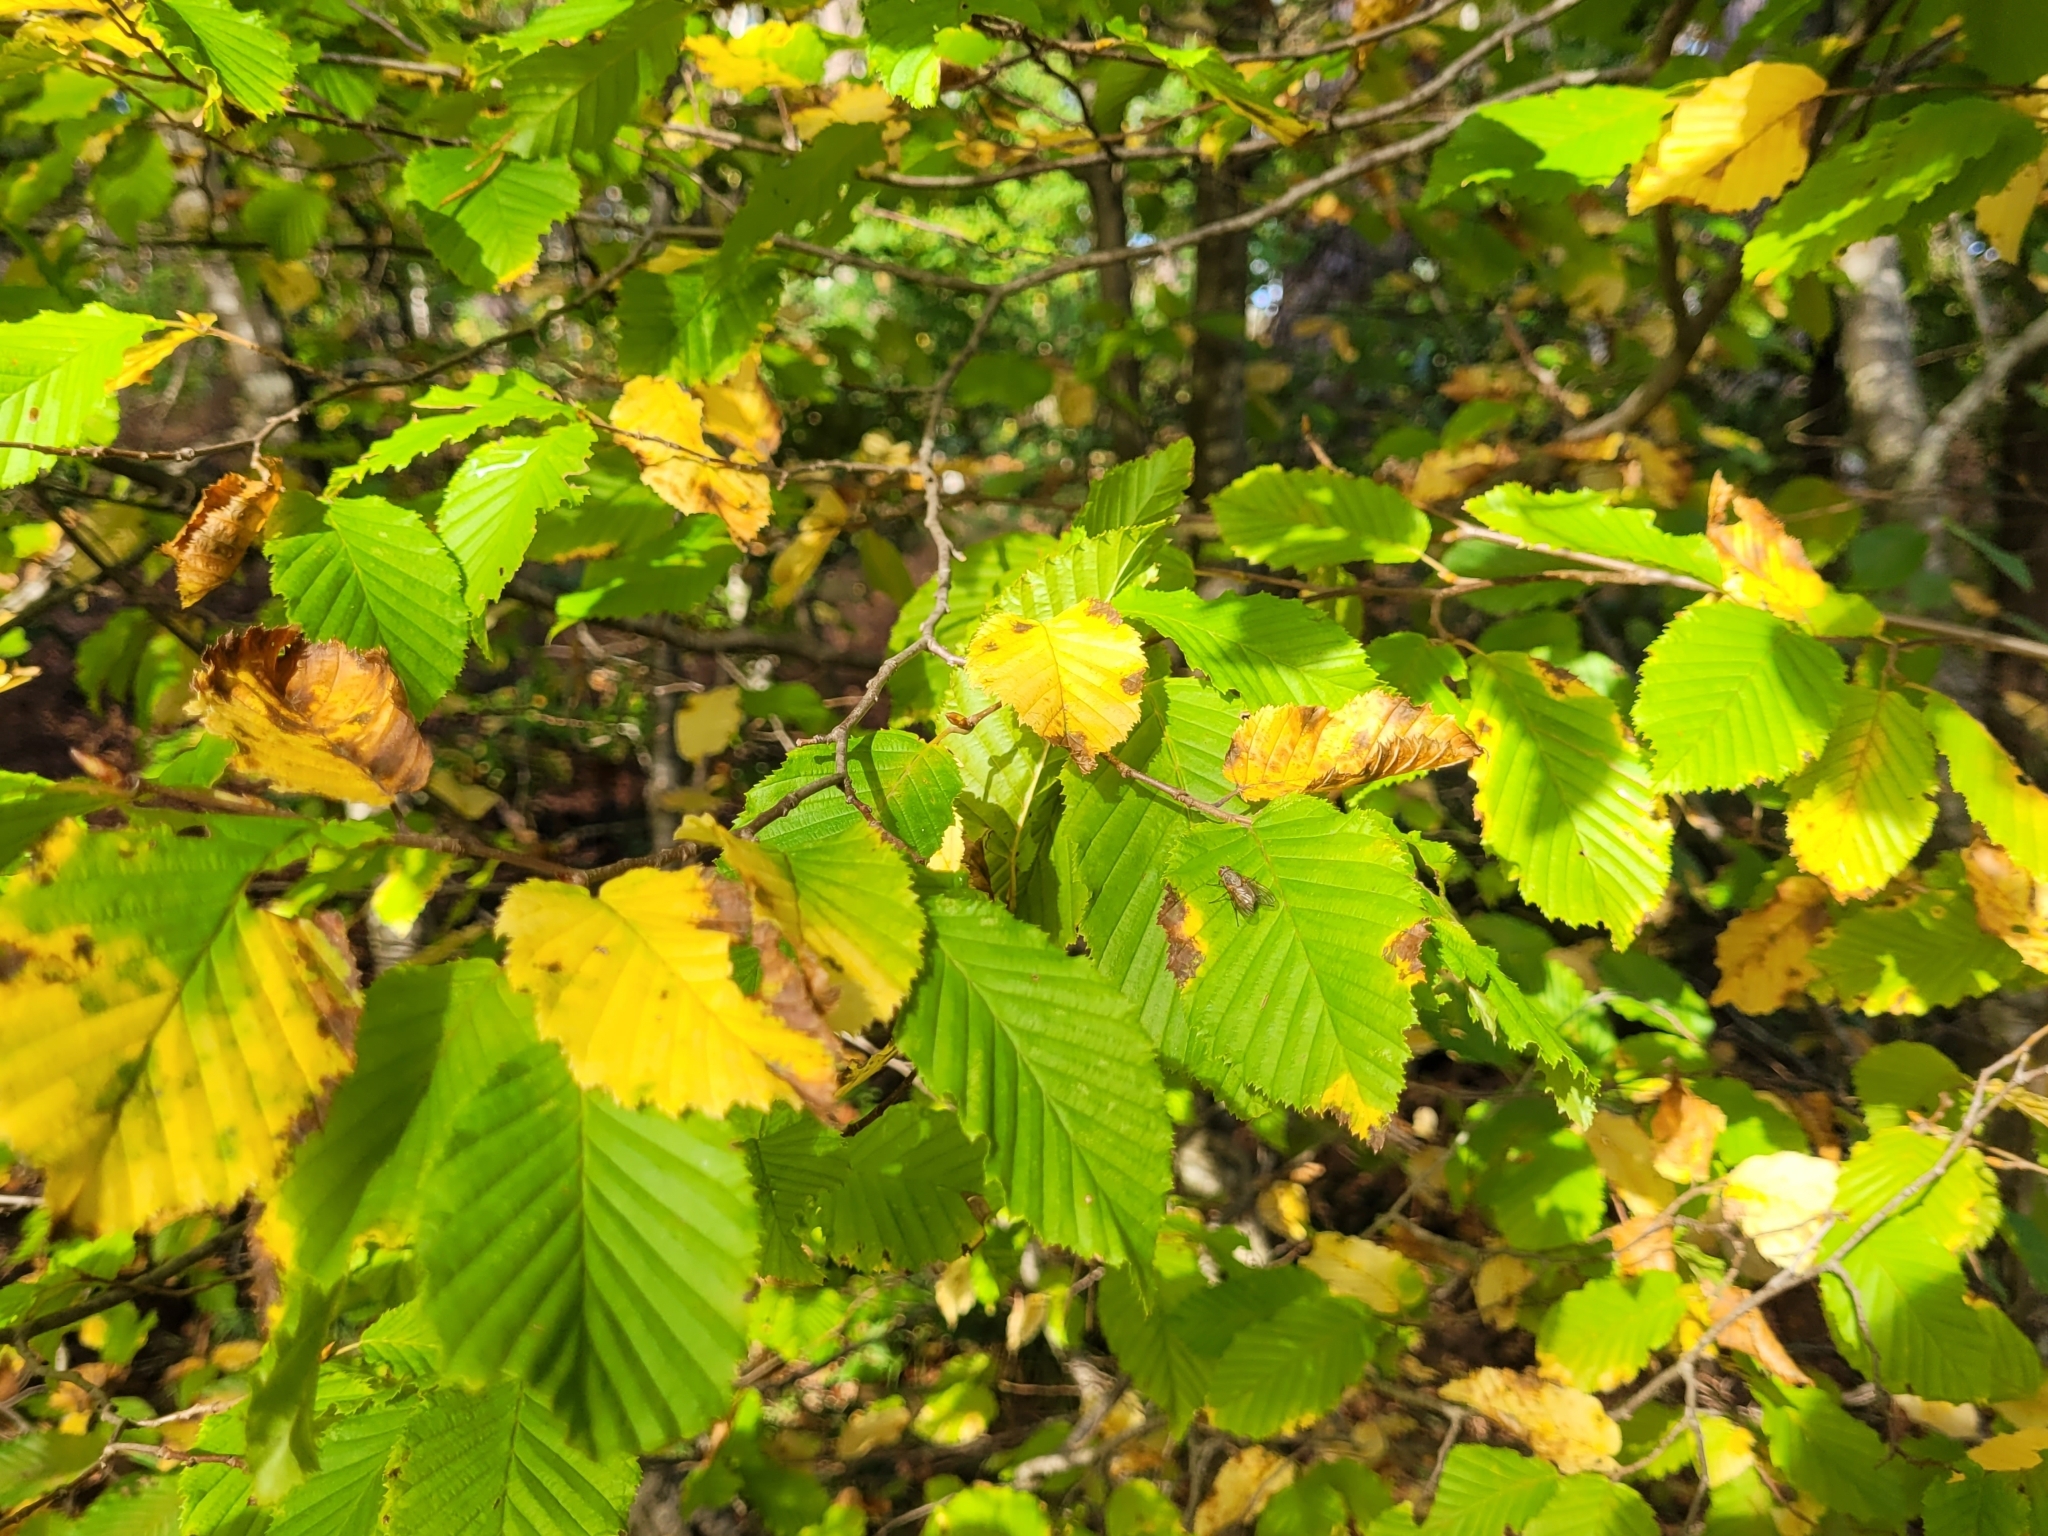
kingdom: Plantae
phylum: Tracheophyta
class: Magnoliopsida
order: Fagales
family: Betulaceae
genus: Carpinus
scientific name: Carpinus betulus
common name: Hornbeam
